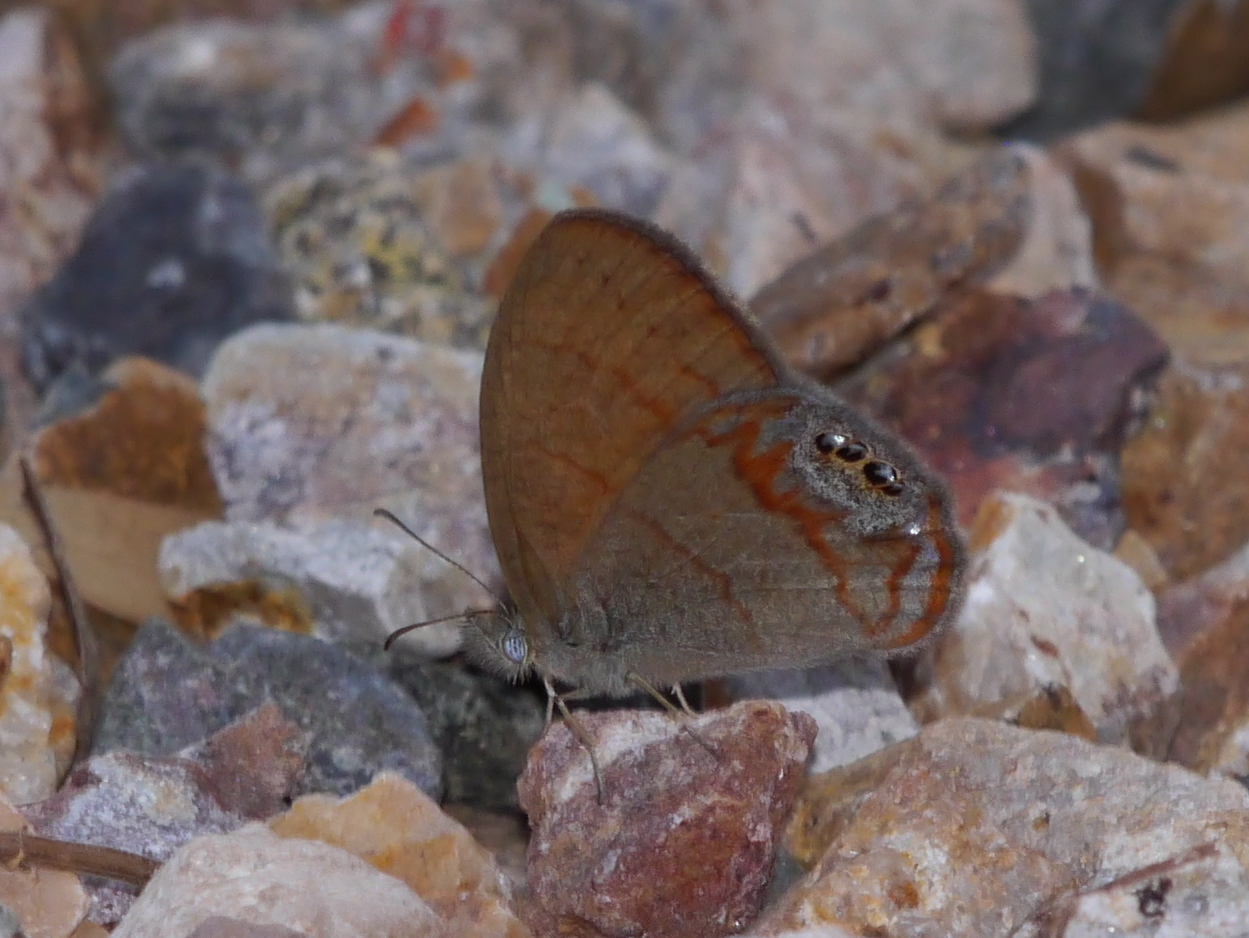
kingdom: Animalia
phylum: Arthropoda
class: Insecta
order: Lepidoptera
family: Nymphalidae
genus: Euptychia
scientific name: Euptychia pyracmon
